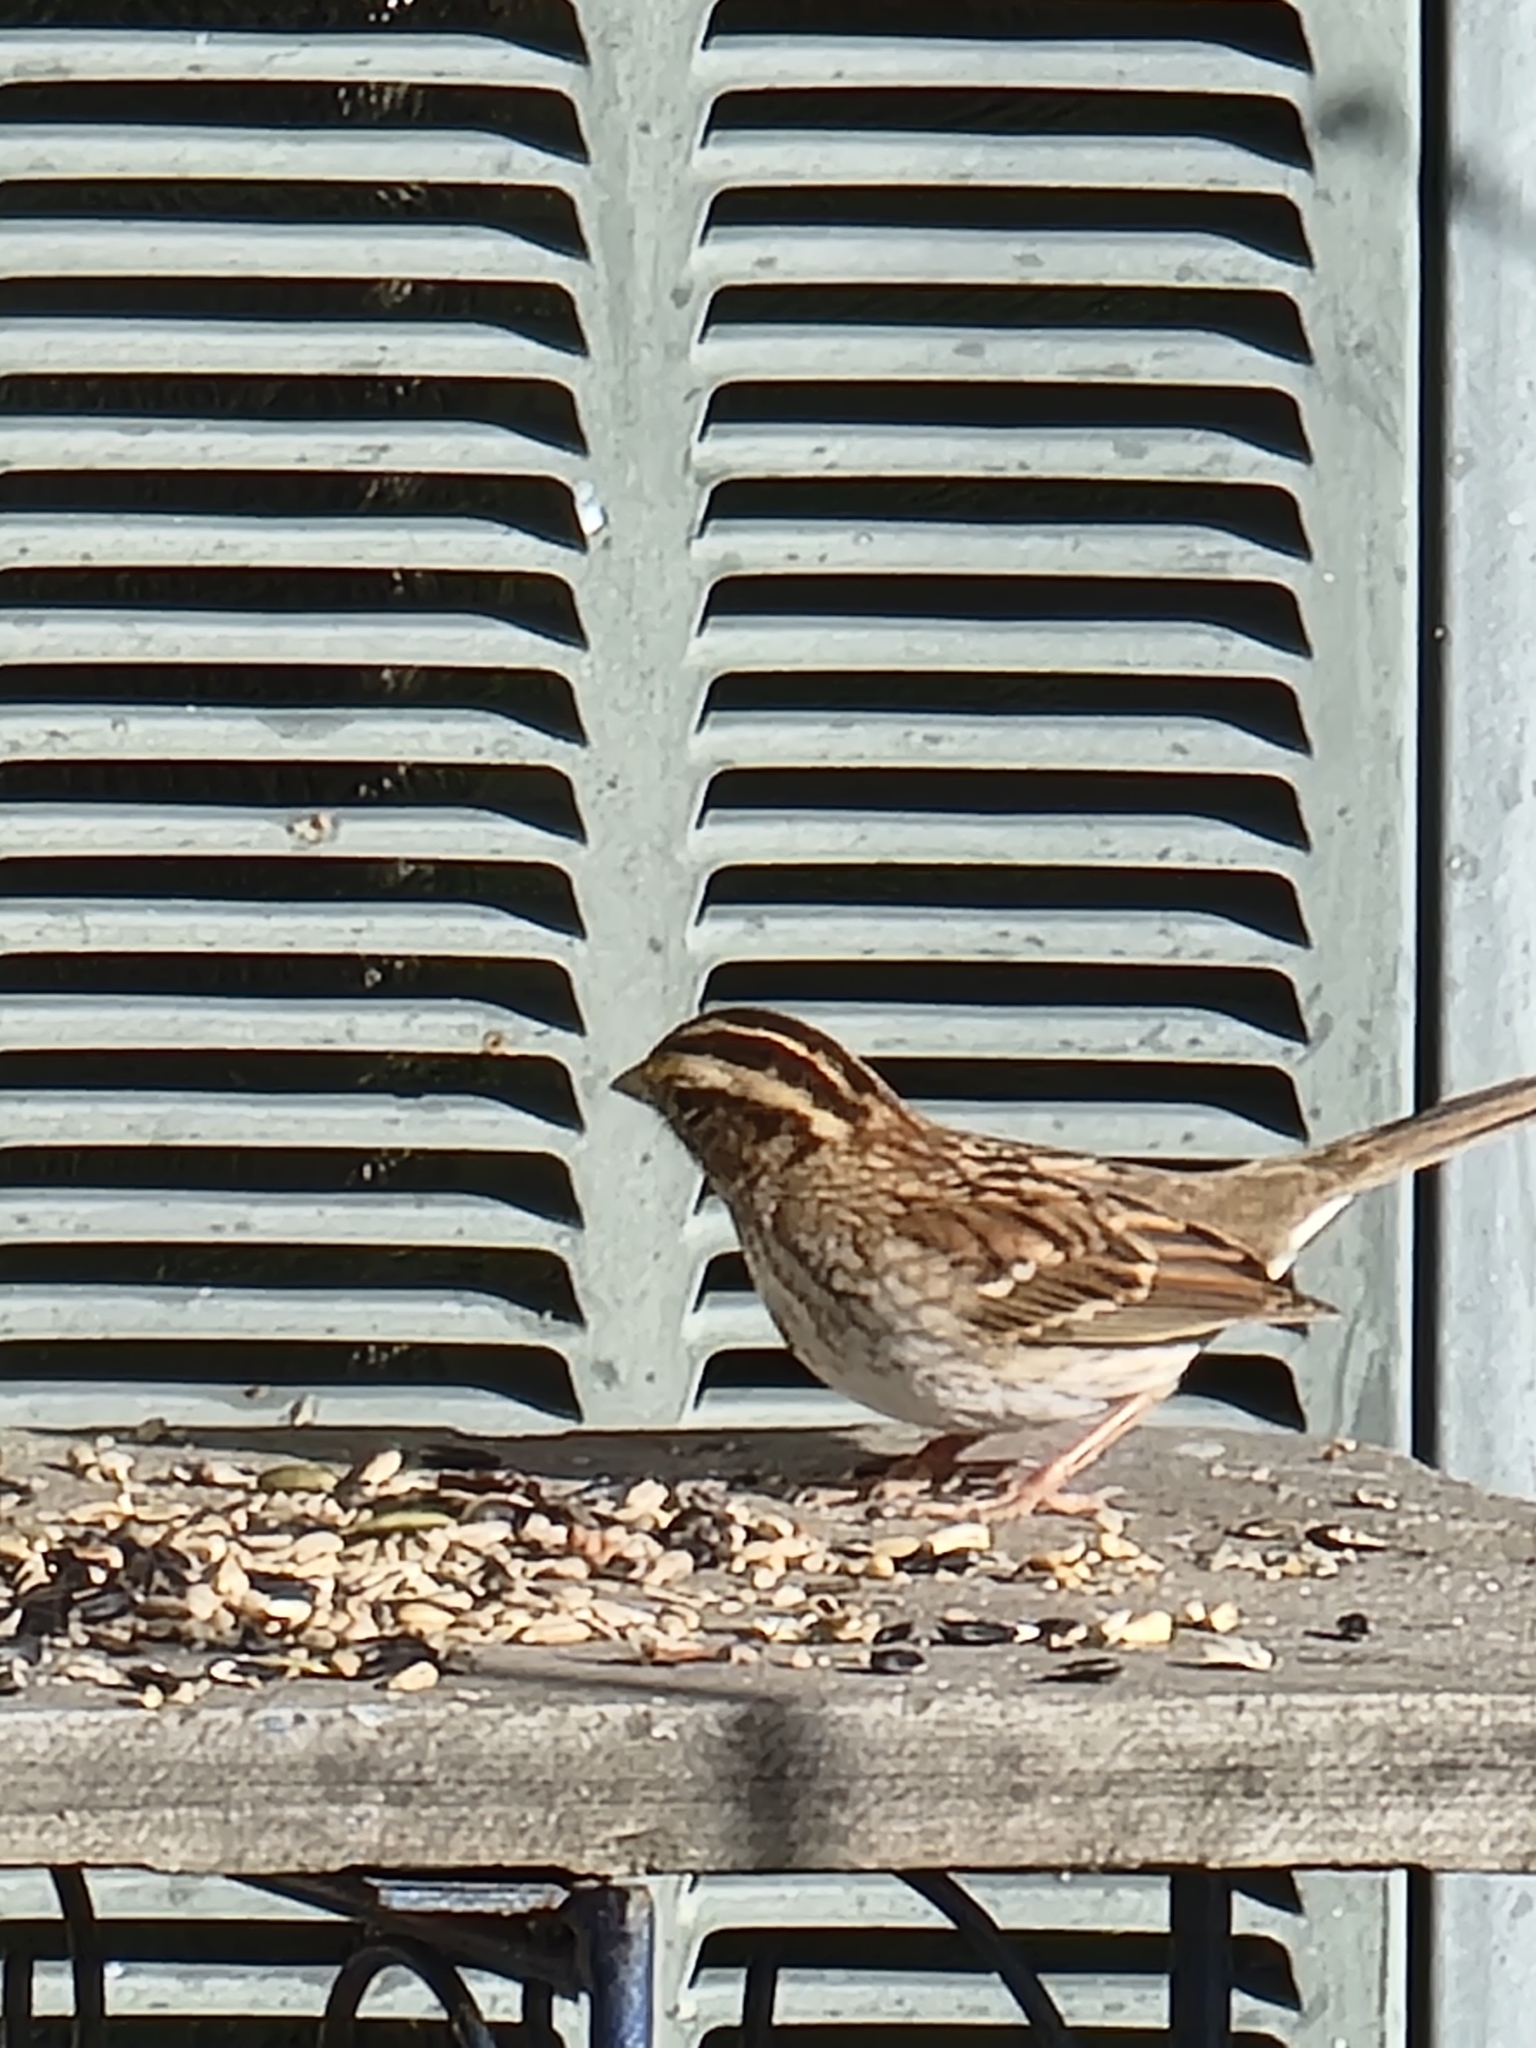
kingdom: Animalia
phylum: Chordata
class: Aves
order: Passeriformes
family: Passerellidae
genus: Zonotrichia
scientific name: Zonotrichia albicollis
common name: White-throated sparrow
